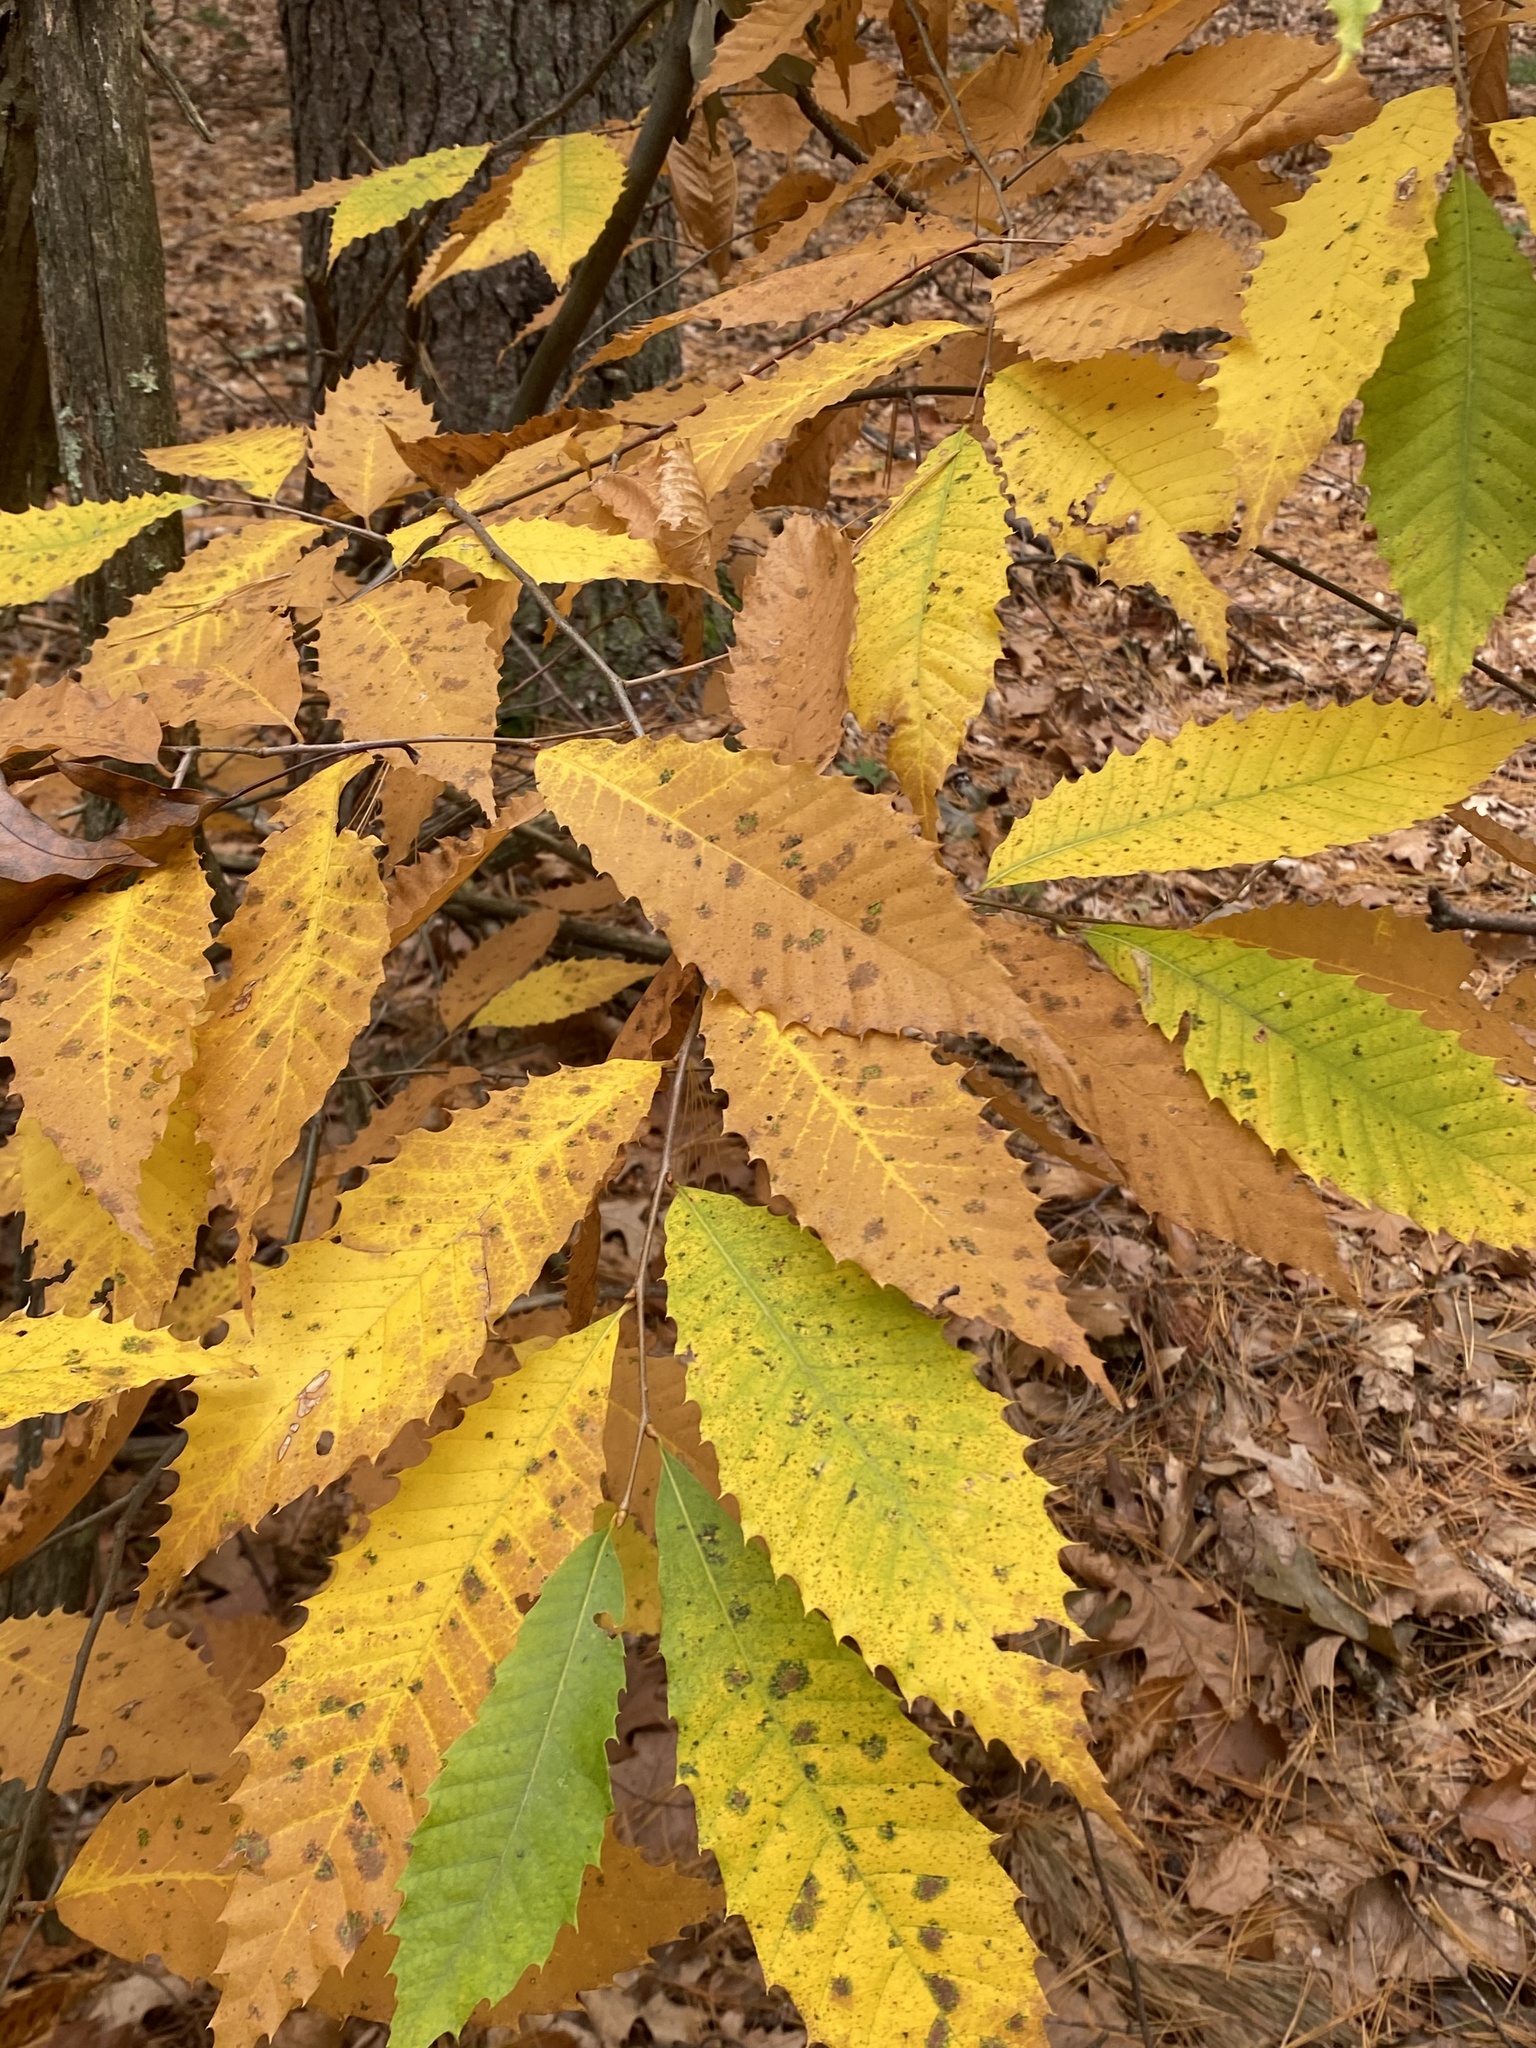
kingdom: Plantae
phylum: Tracheophyta
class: Magnoliopsida
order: Fagales
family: Fagaceae
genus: Castanea
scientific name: Castanea dentata
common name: American chestnut
